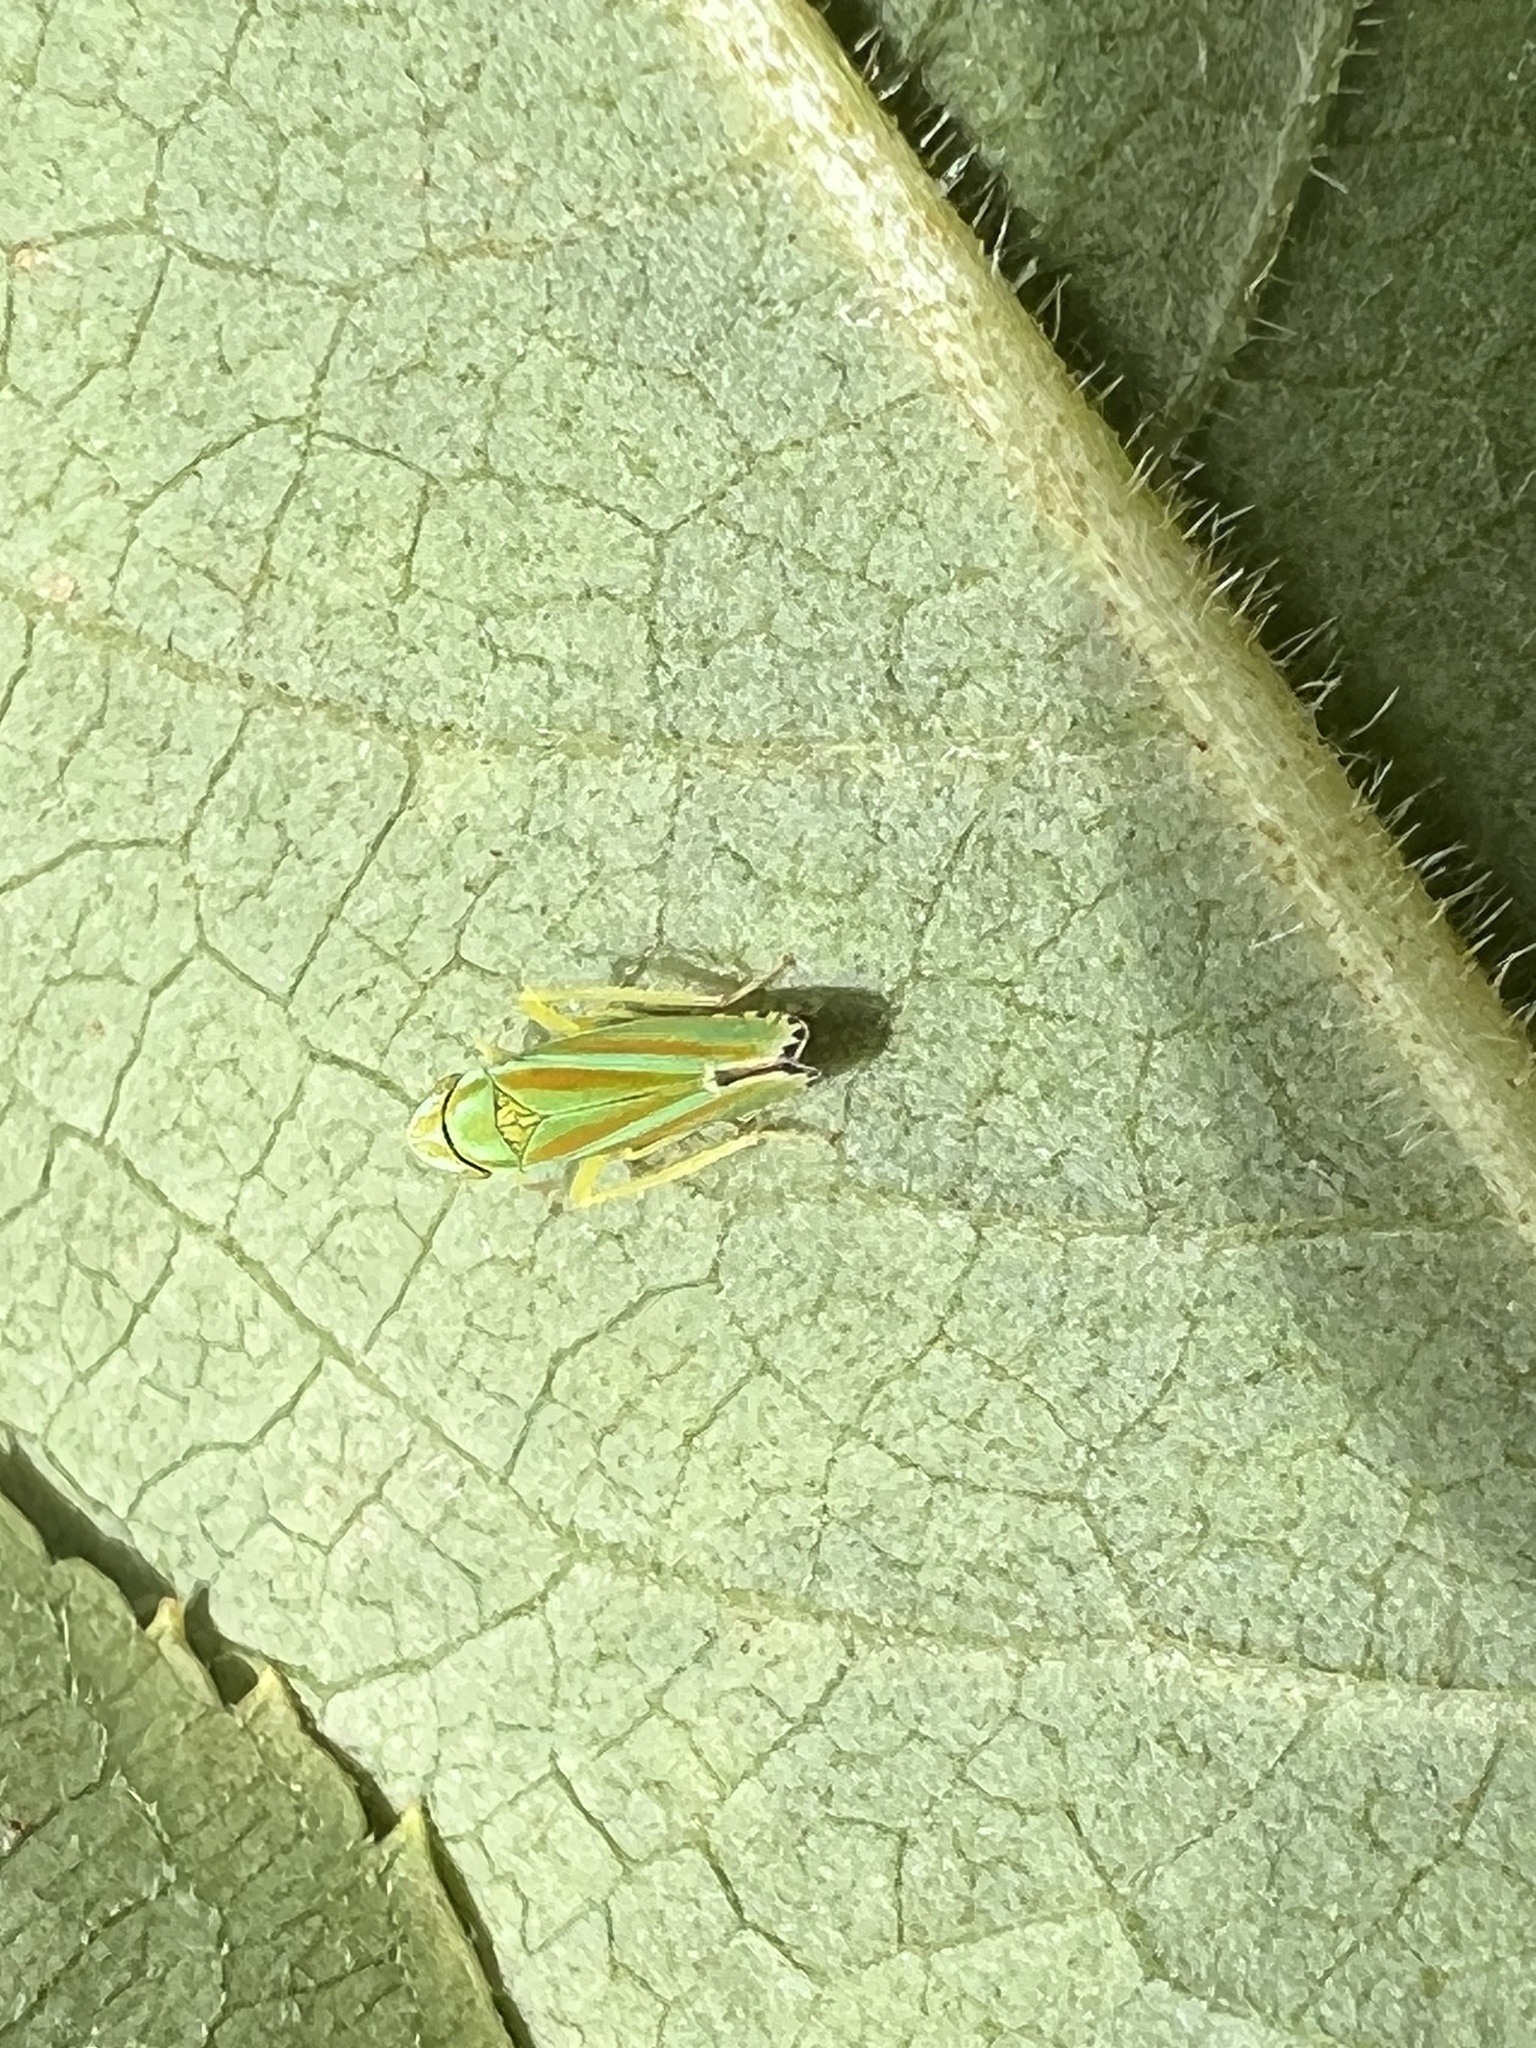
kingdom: Animalia
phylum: Arthropoda
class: Insecta
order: Hemiptera
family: Cicadellidae
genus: Graphocephala
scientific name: Graphocephala versuta
